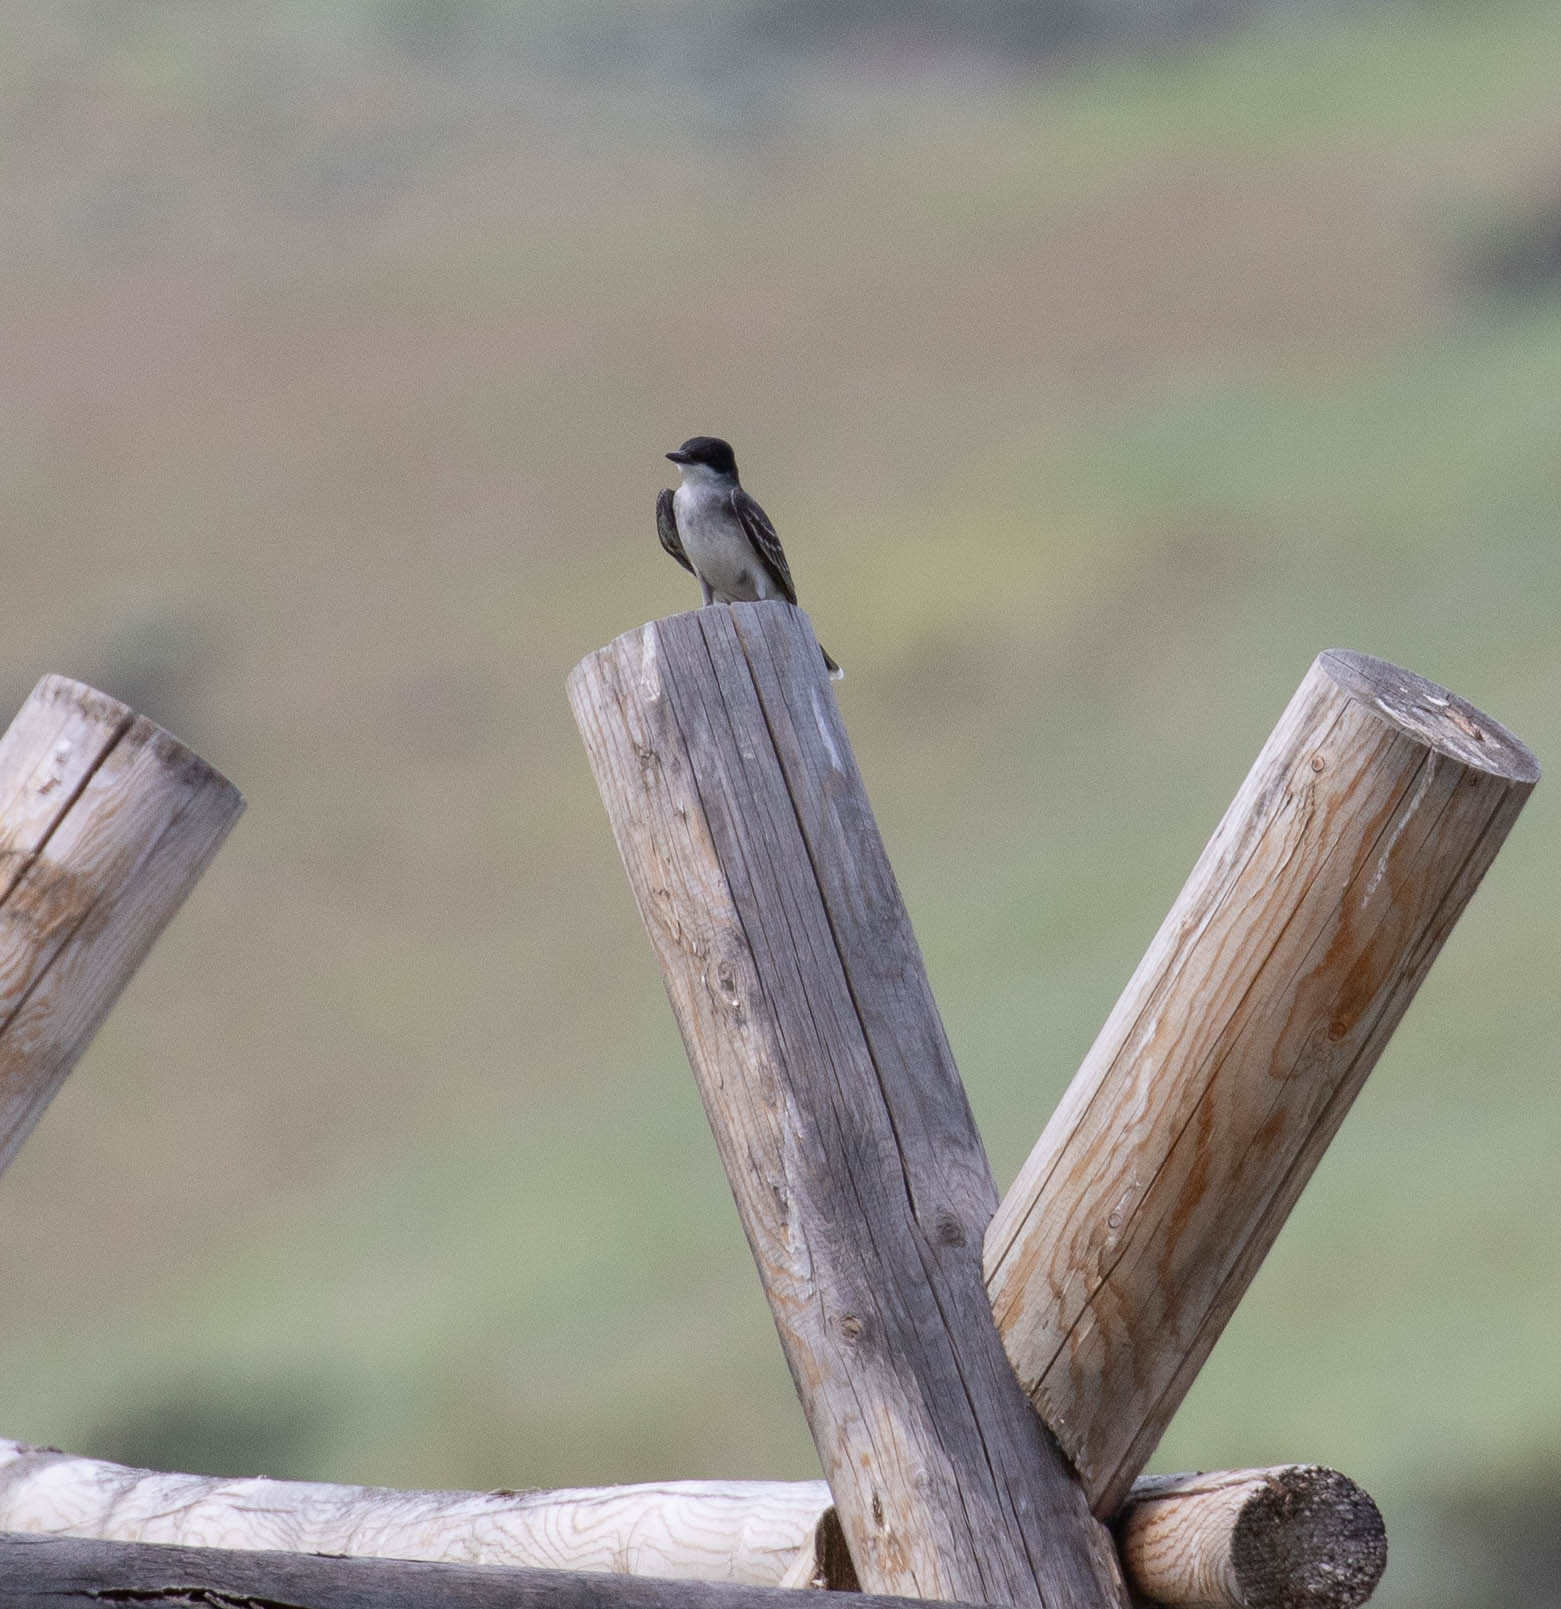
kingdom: Animalia
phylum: Chordata
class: Aves
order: Passeriformes
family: Tyrannidae
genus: Tyrannus
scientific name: Tyrannus tyrannus
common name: Eastern kingbird
